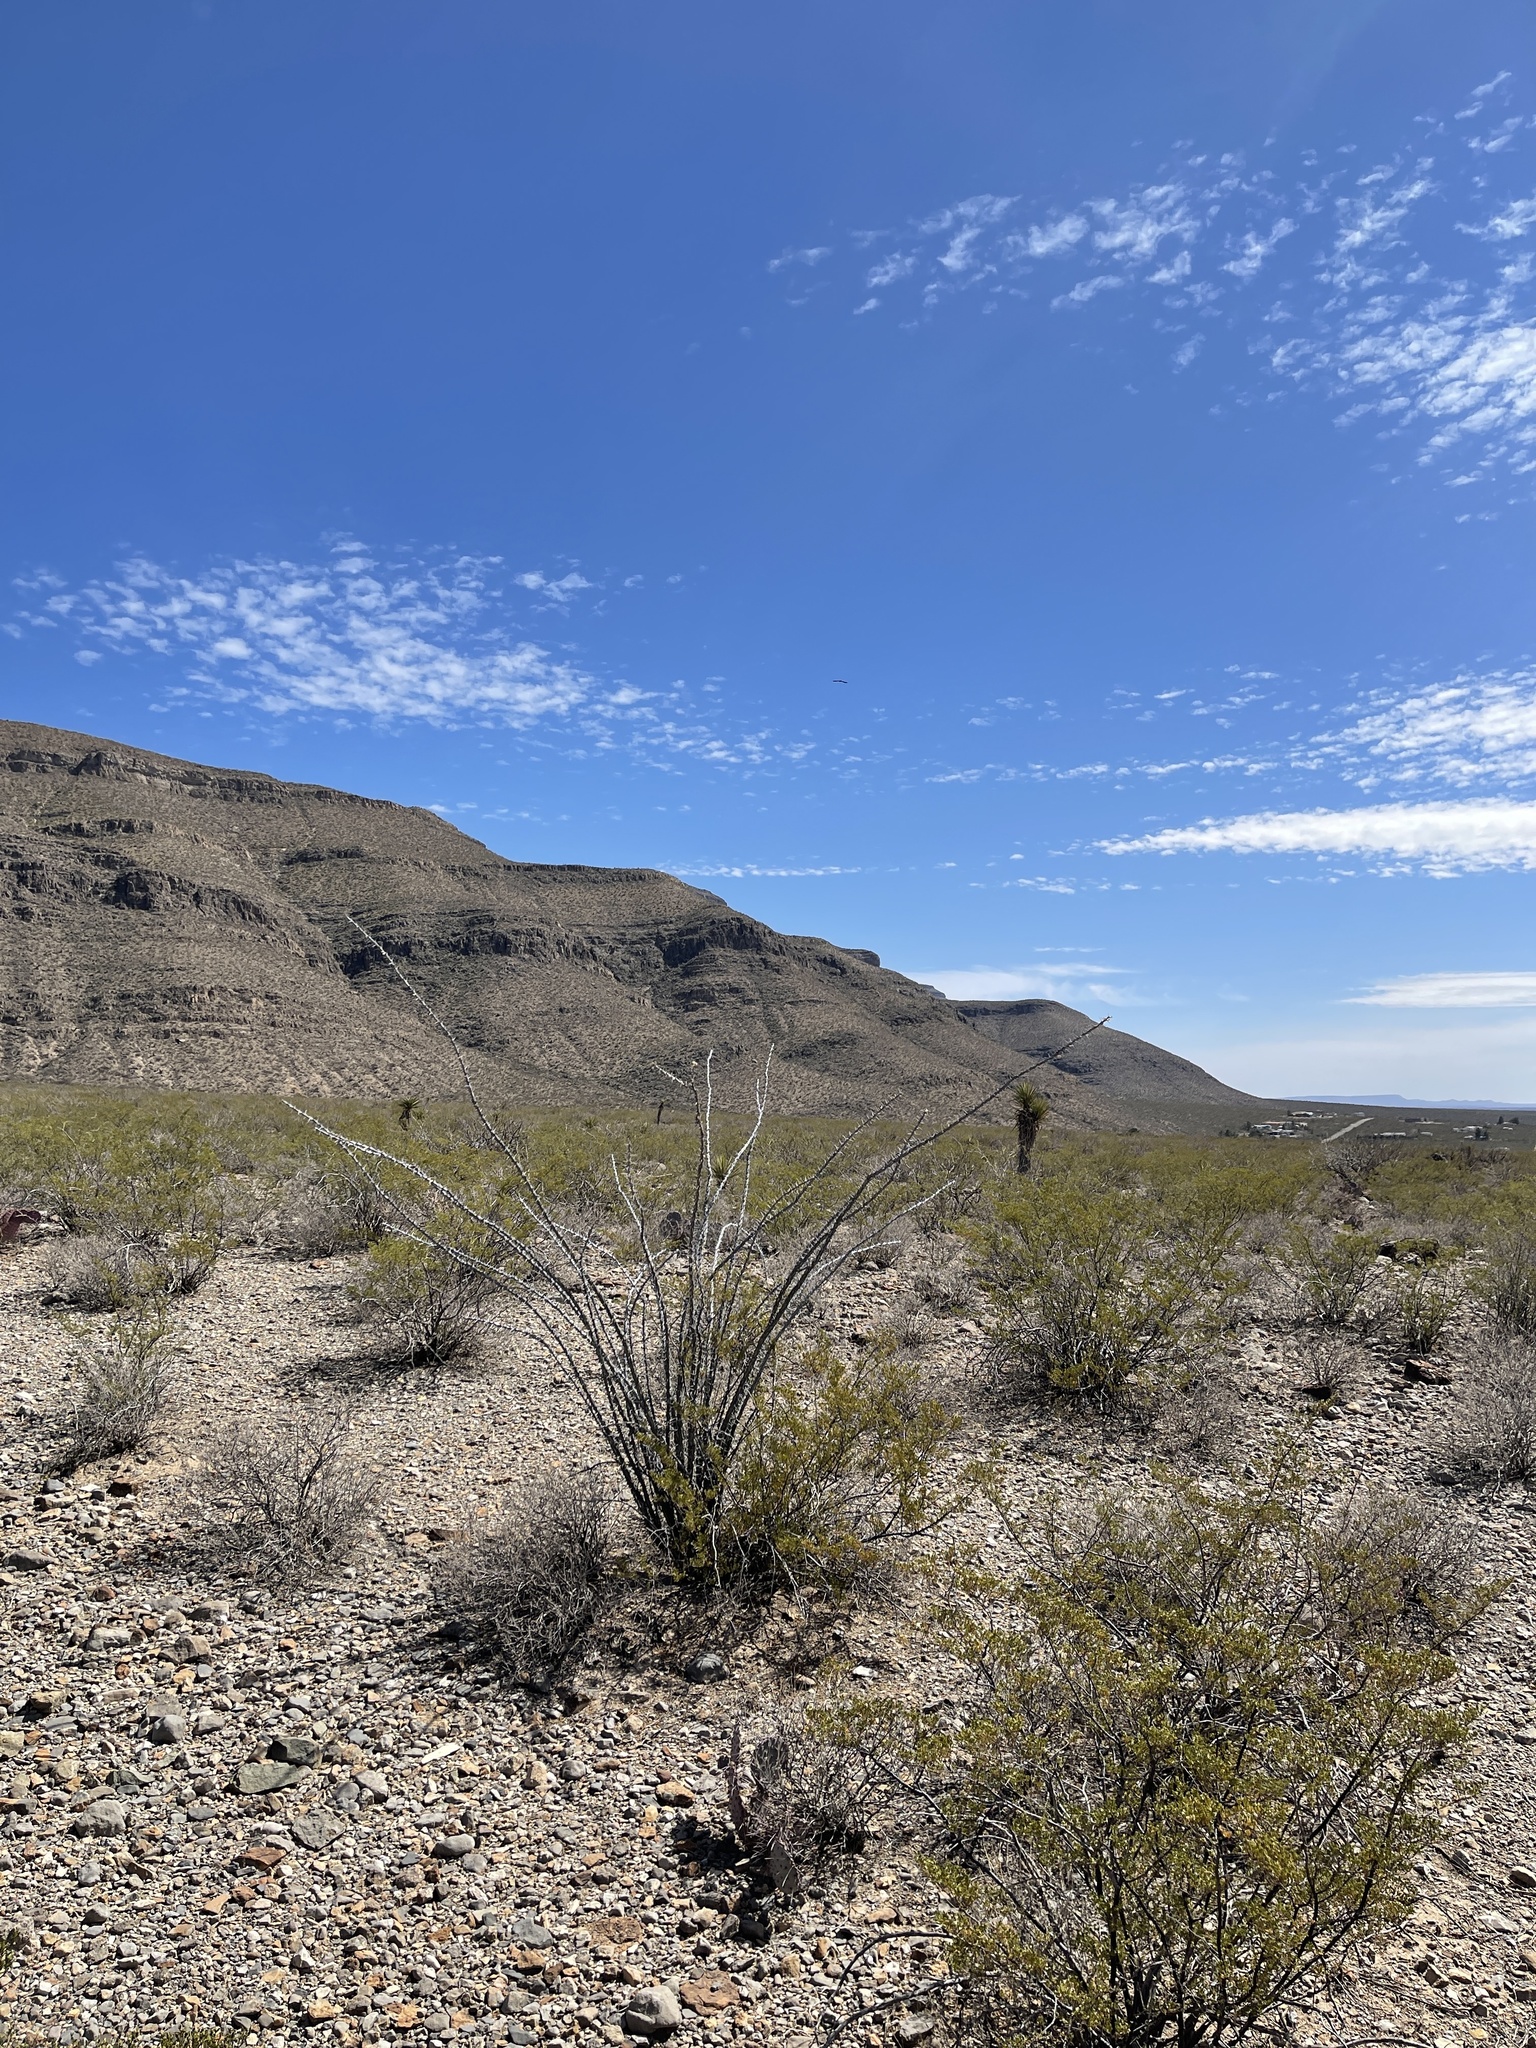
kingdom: Plantae
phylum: Tracheophyta
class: Magnoliopsida
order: Ericales
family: Fouquieriaceae
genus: Fouquieria
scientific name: Fouquieria splendens
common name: Vine-cactus
